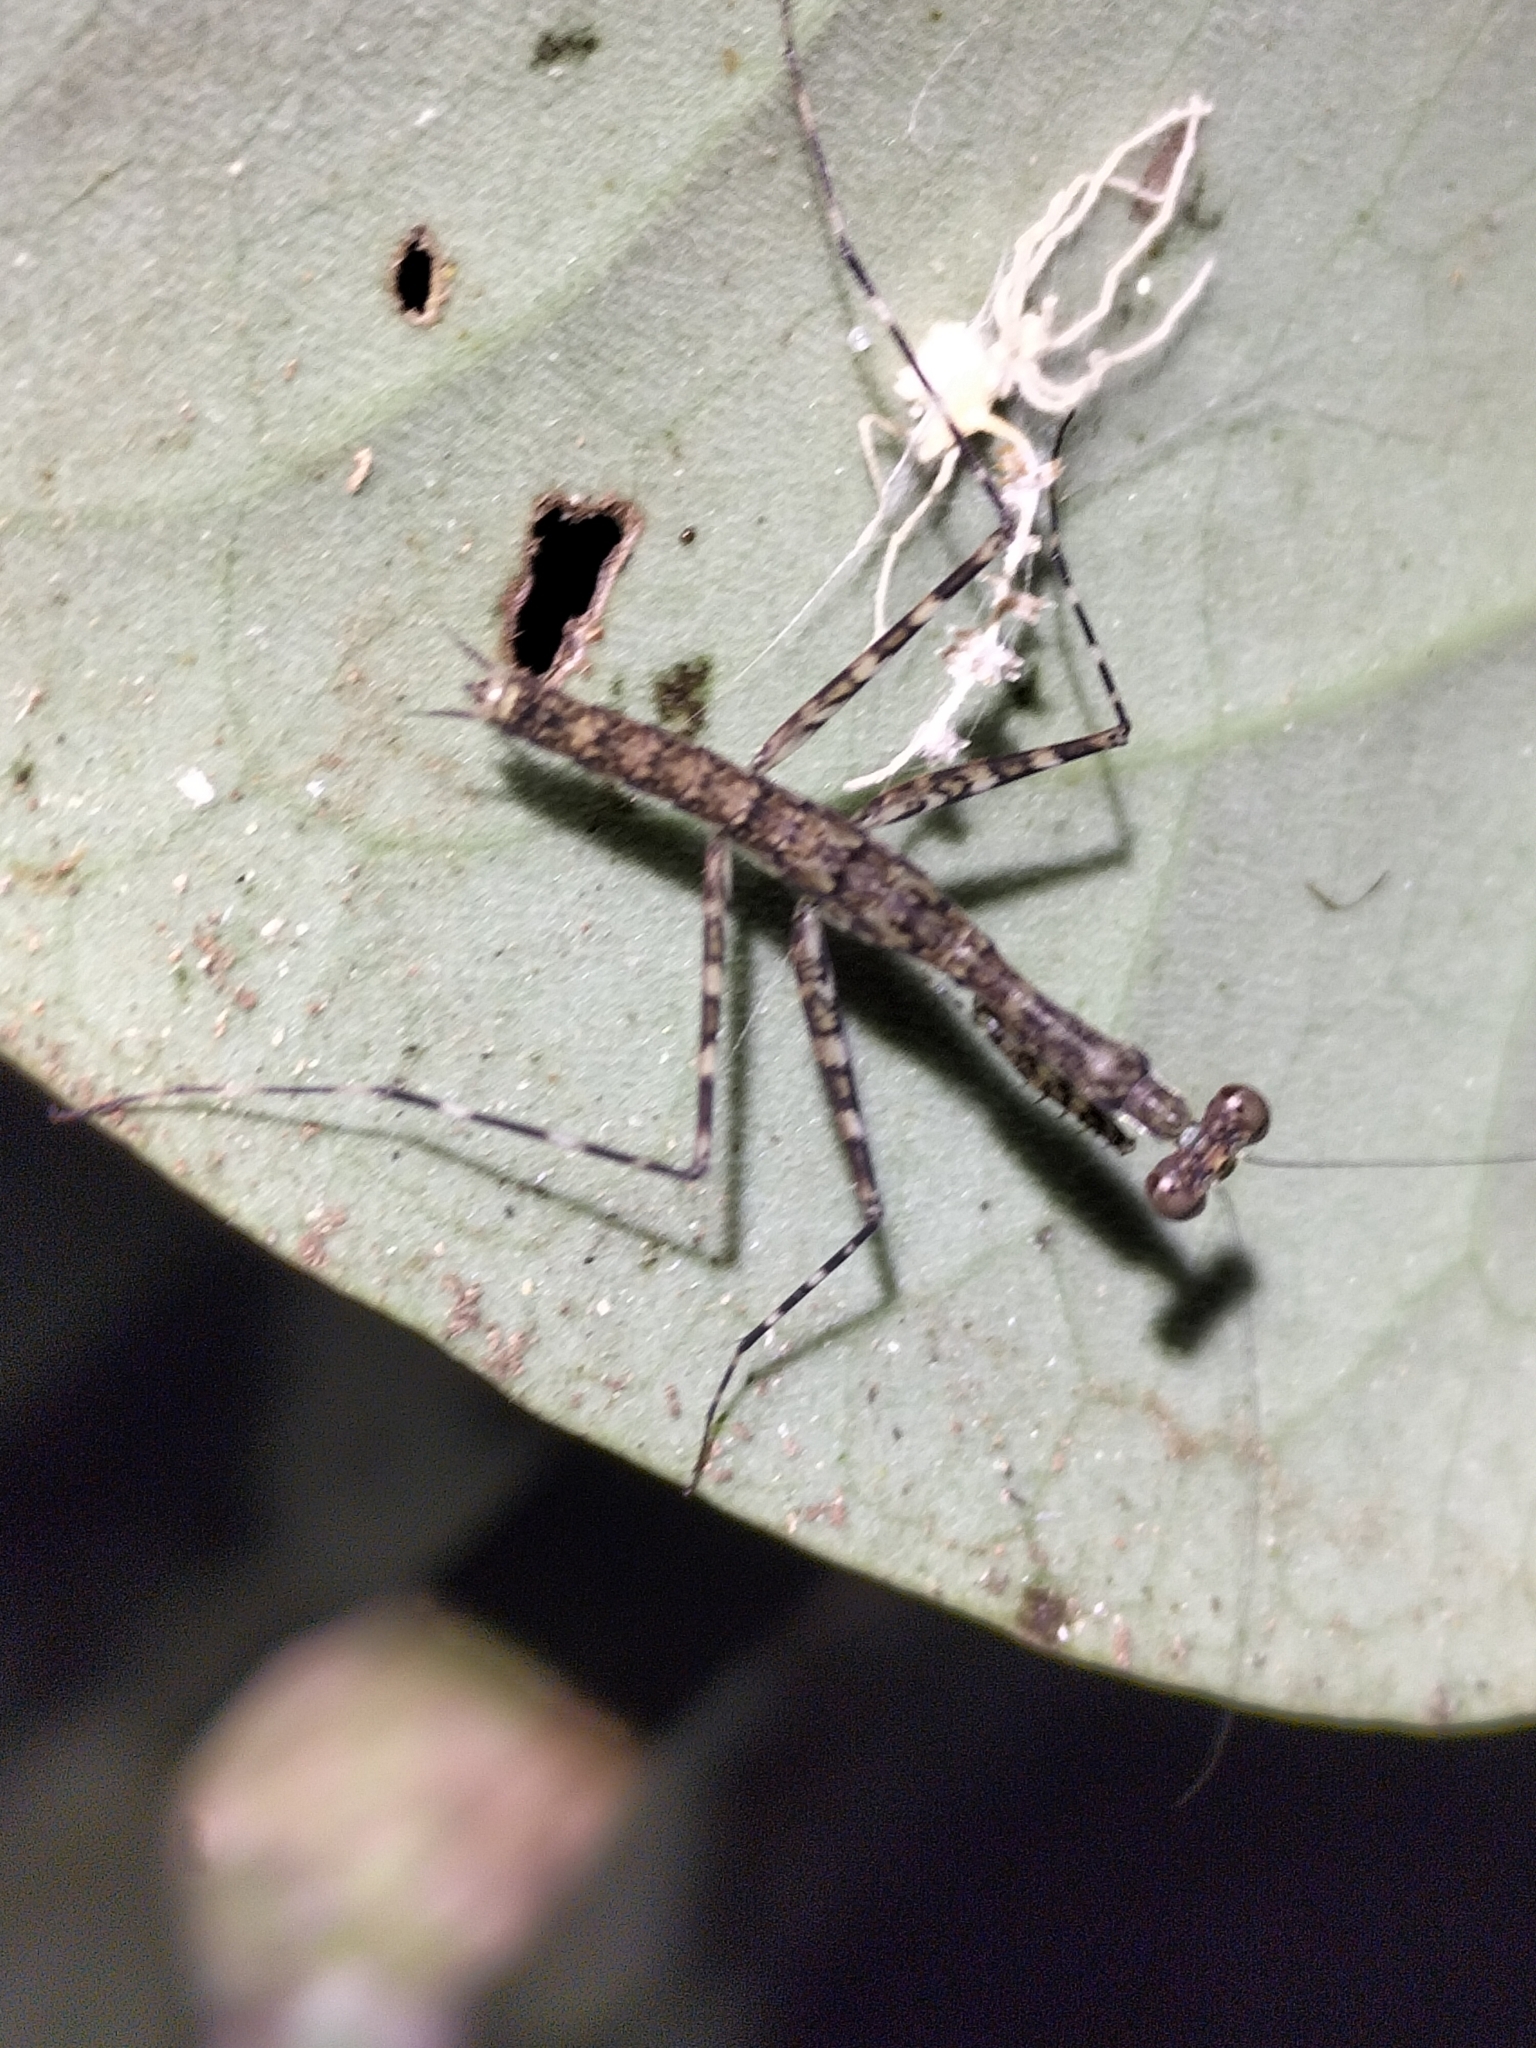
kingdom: Animalia
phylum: Arthropoda
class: Insecta
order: Mantodea
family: Nanomantidae
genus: Ciulfina
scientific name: Ciulfina rentzi
